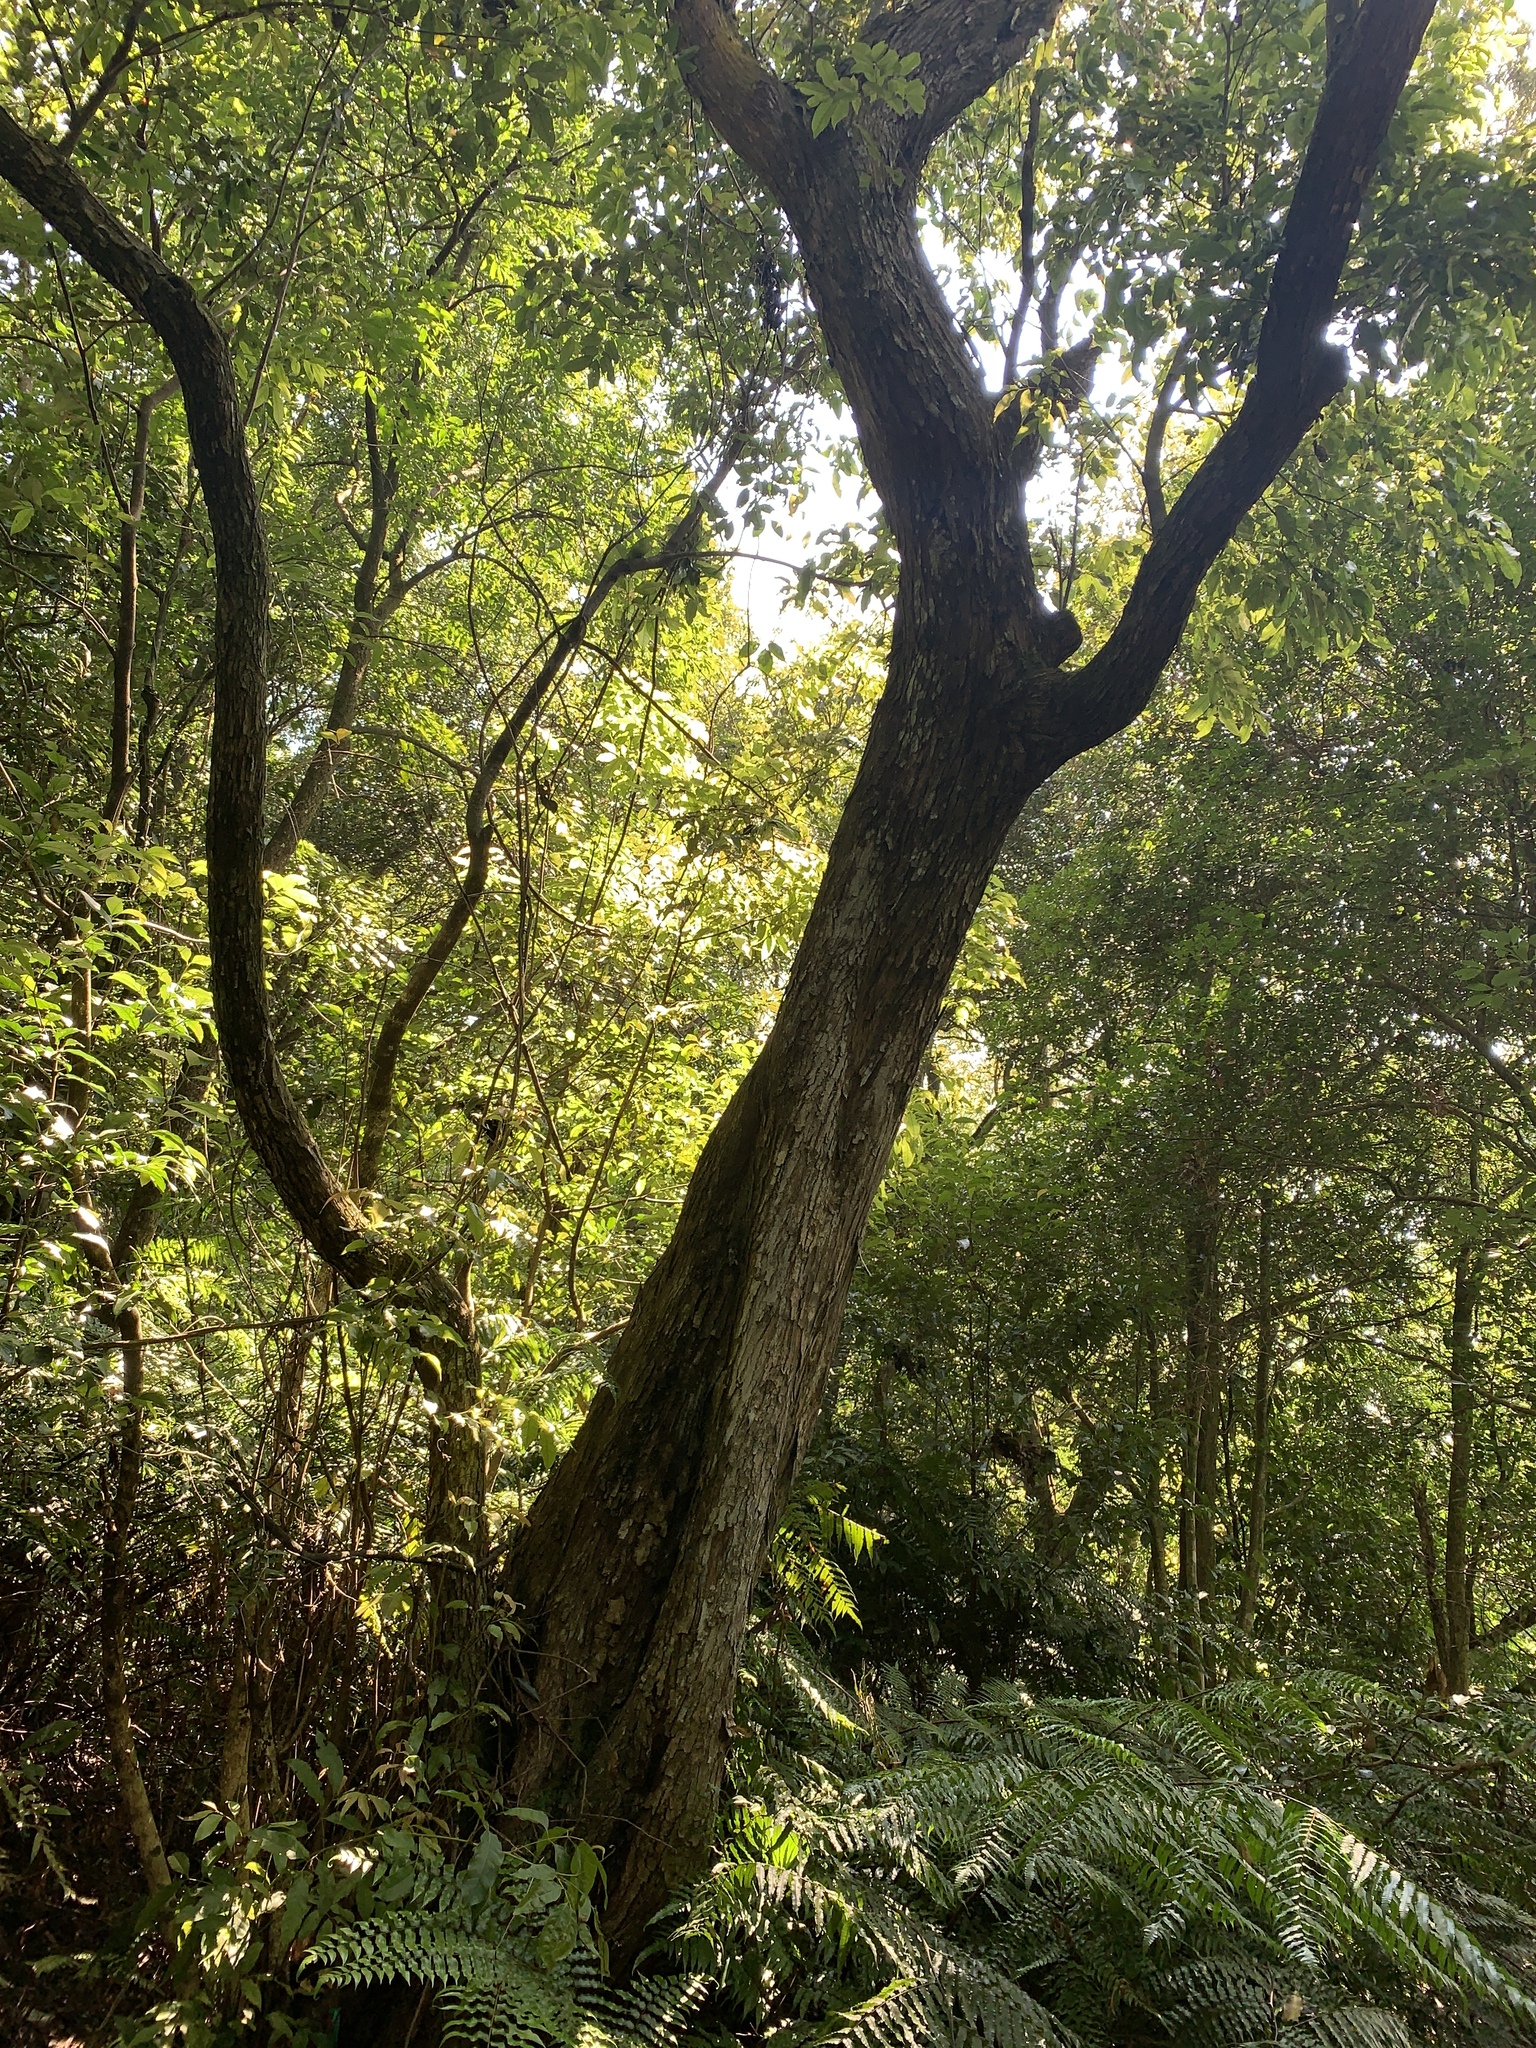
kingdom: Plantae
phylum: Tracheophyta
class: Magnoliopsida
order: Fagales
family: Juglandaceae
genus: Engelhardia
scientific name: Engelhardia roxburghiana
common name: Golden malay beam
